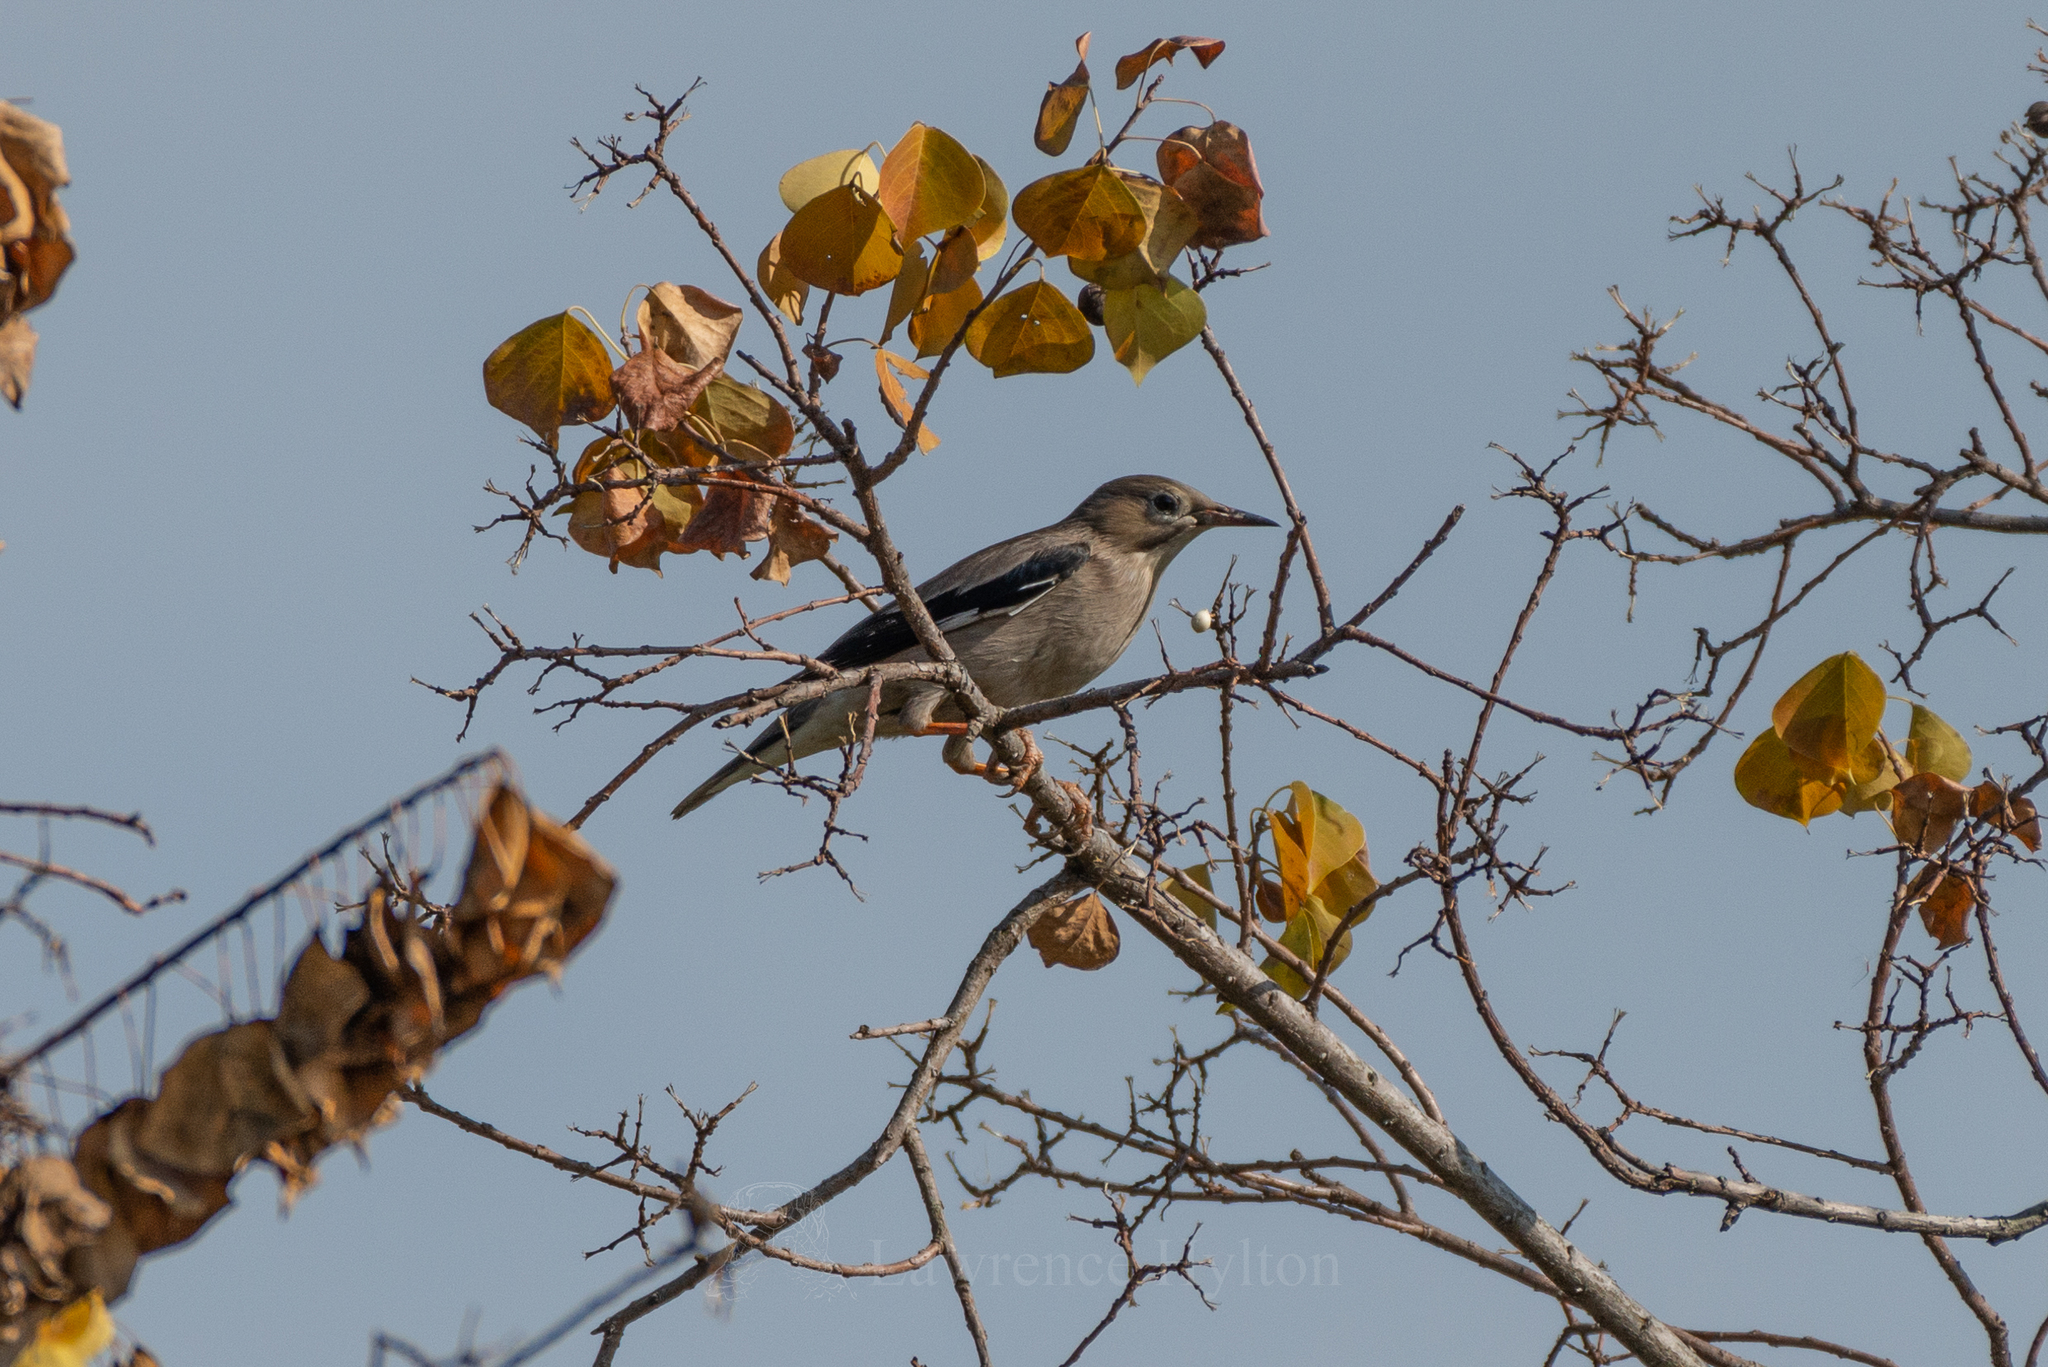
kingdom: Animalia
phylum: Chordata
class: Aves
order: Passeriformes
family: Sturnidae
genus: Spodiopsar
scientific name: Spodiopsar sericeus
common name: Red-billed starling
